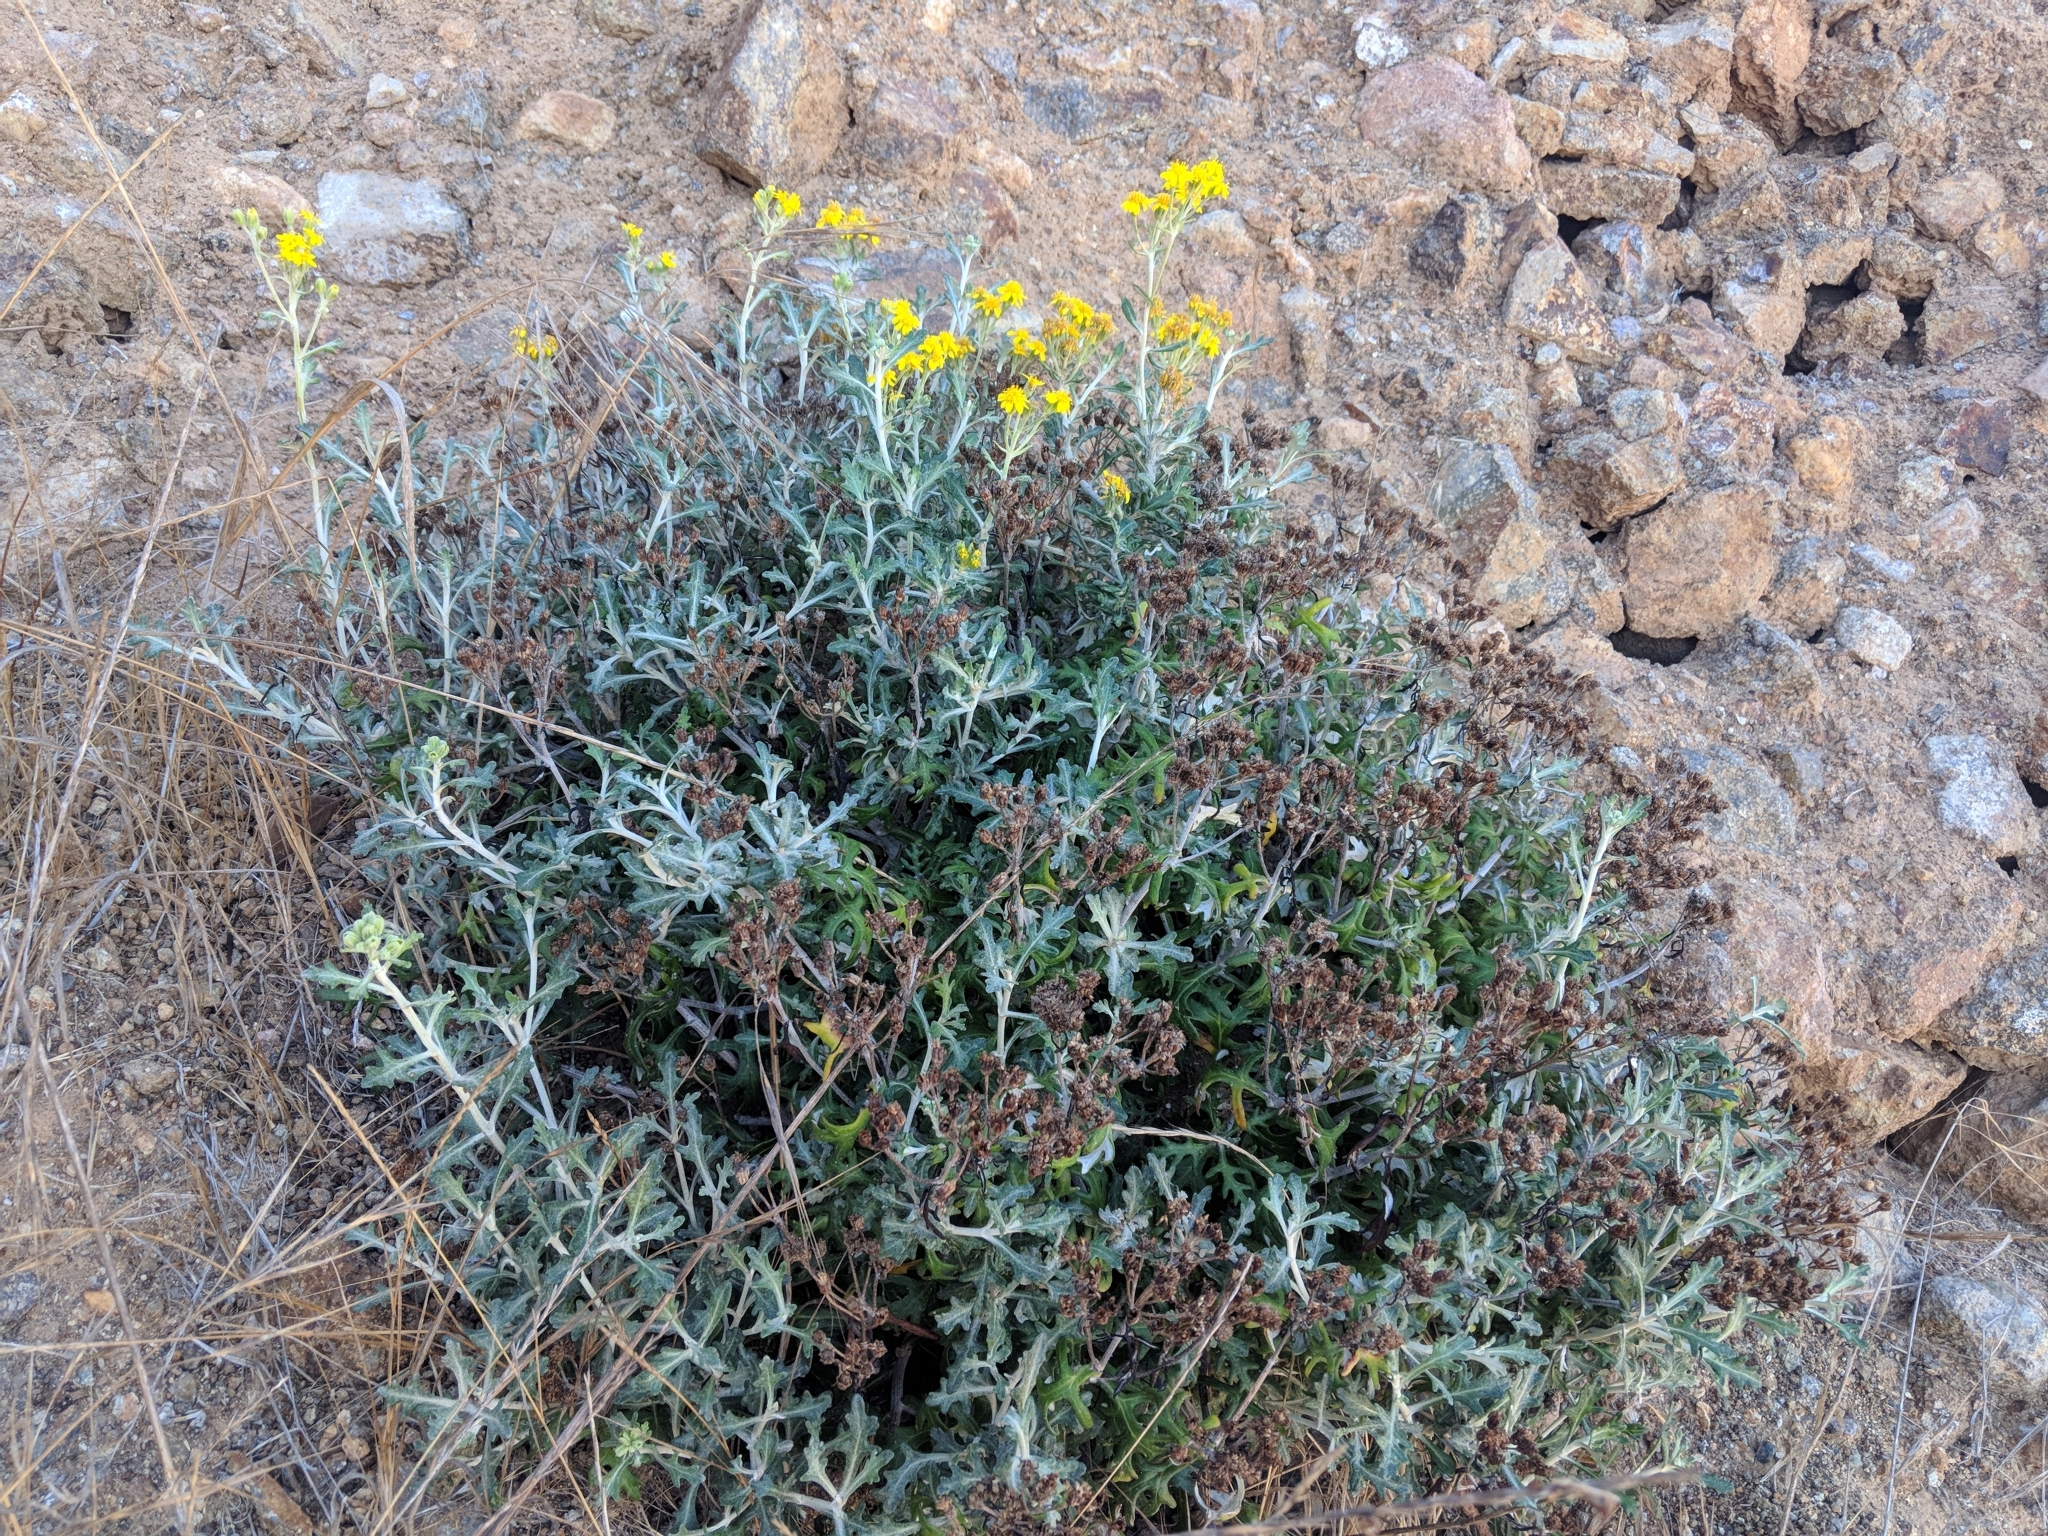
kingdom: Plantae
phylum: Tracheophyta
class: Magnoliopsida
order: Asterales
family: Asteraceae
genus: Eriophyllum
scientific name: Eriophyllum staechadifolium
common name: Lizardtail
